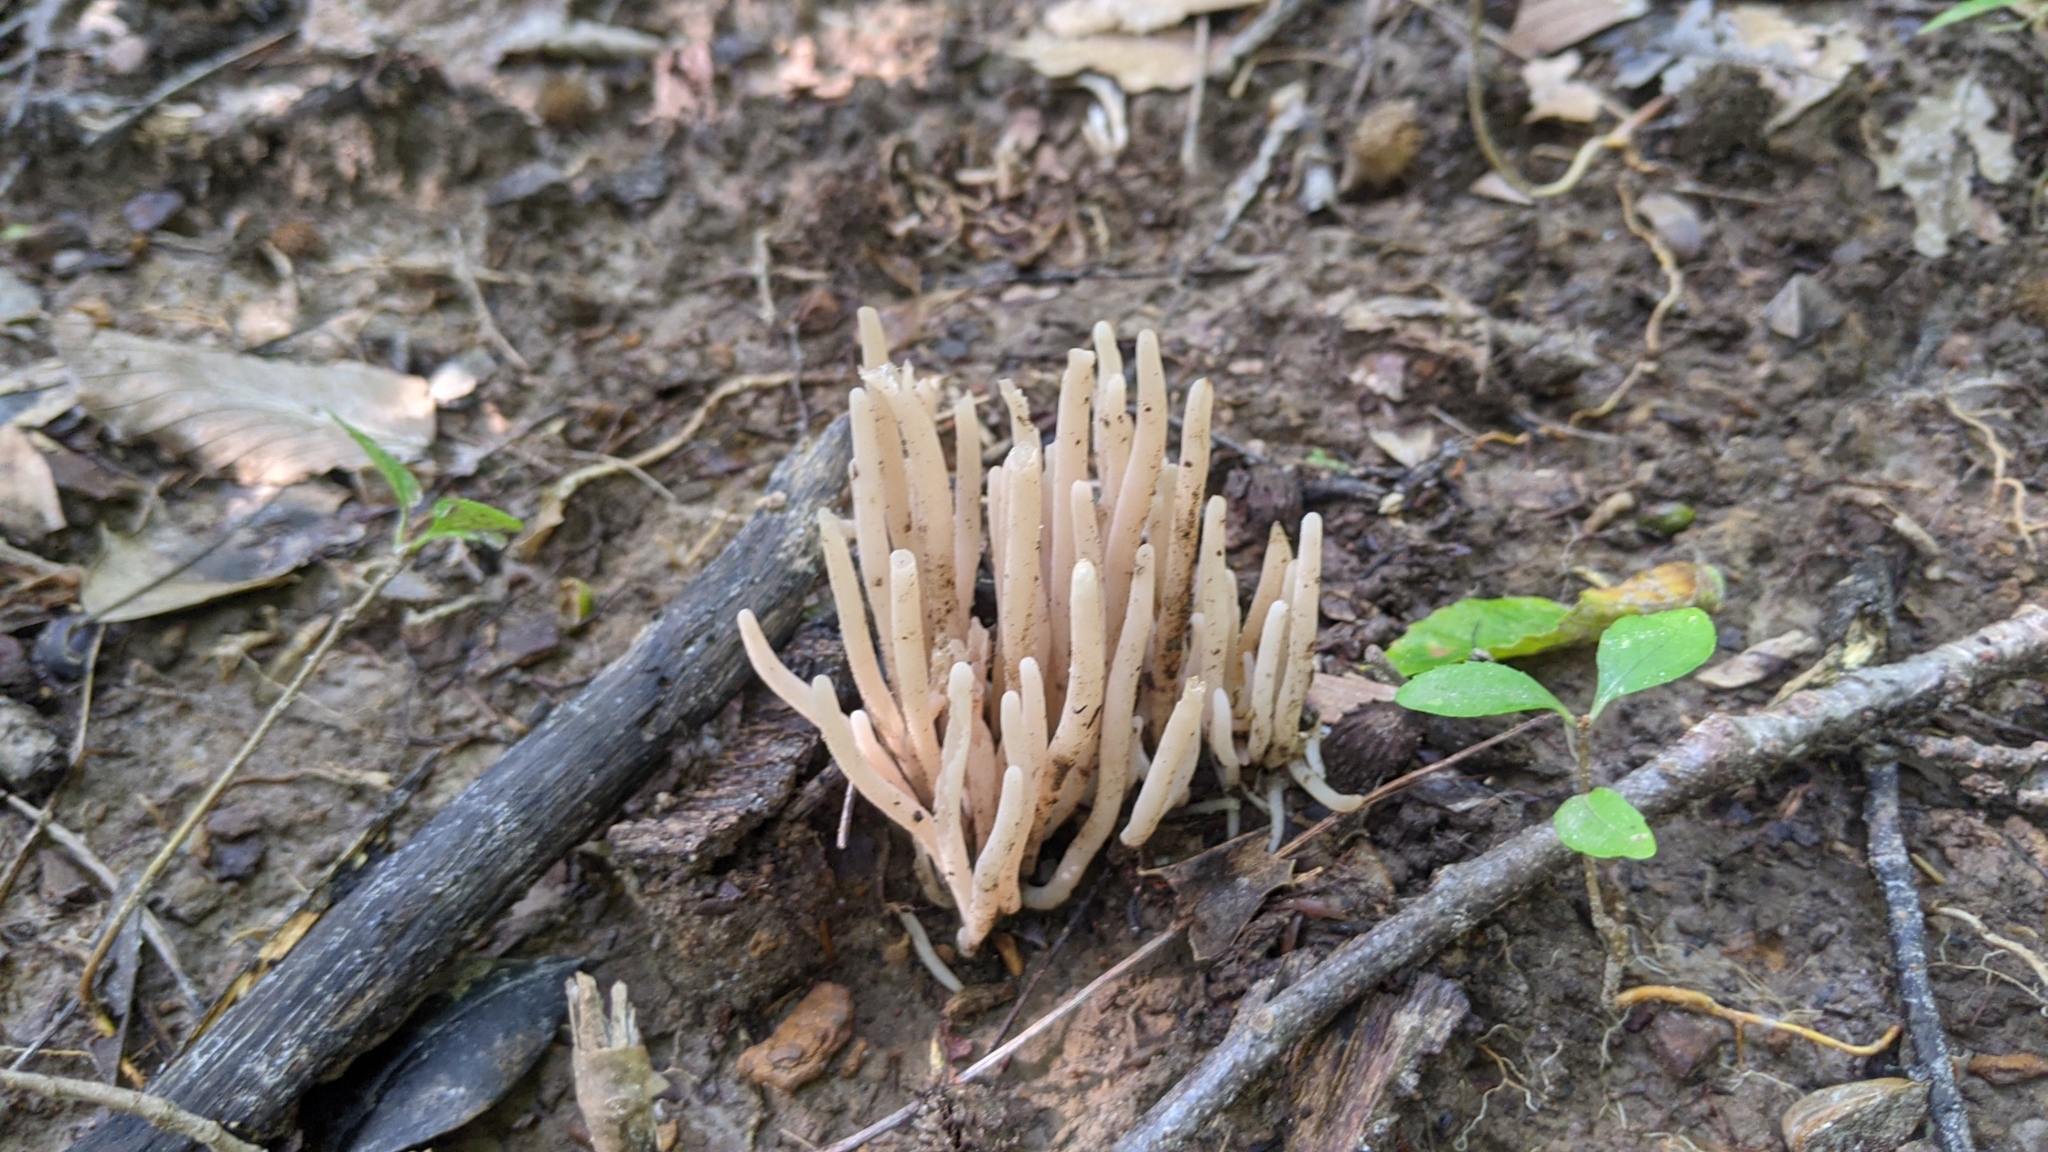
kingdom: Fungi
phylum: Basidiomycota
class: Agaricomycetes
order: Agaricales
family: Clavariaceae
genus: Clavaria
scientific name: Clavaria fumosa
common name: Smoky spindles
